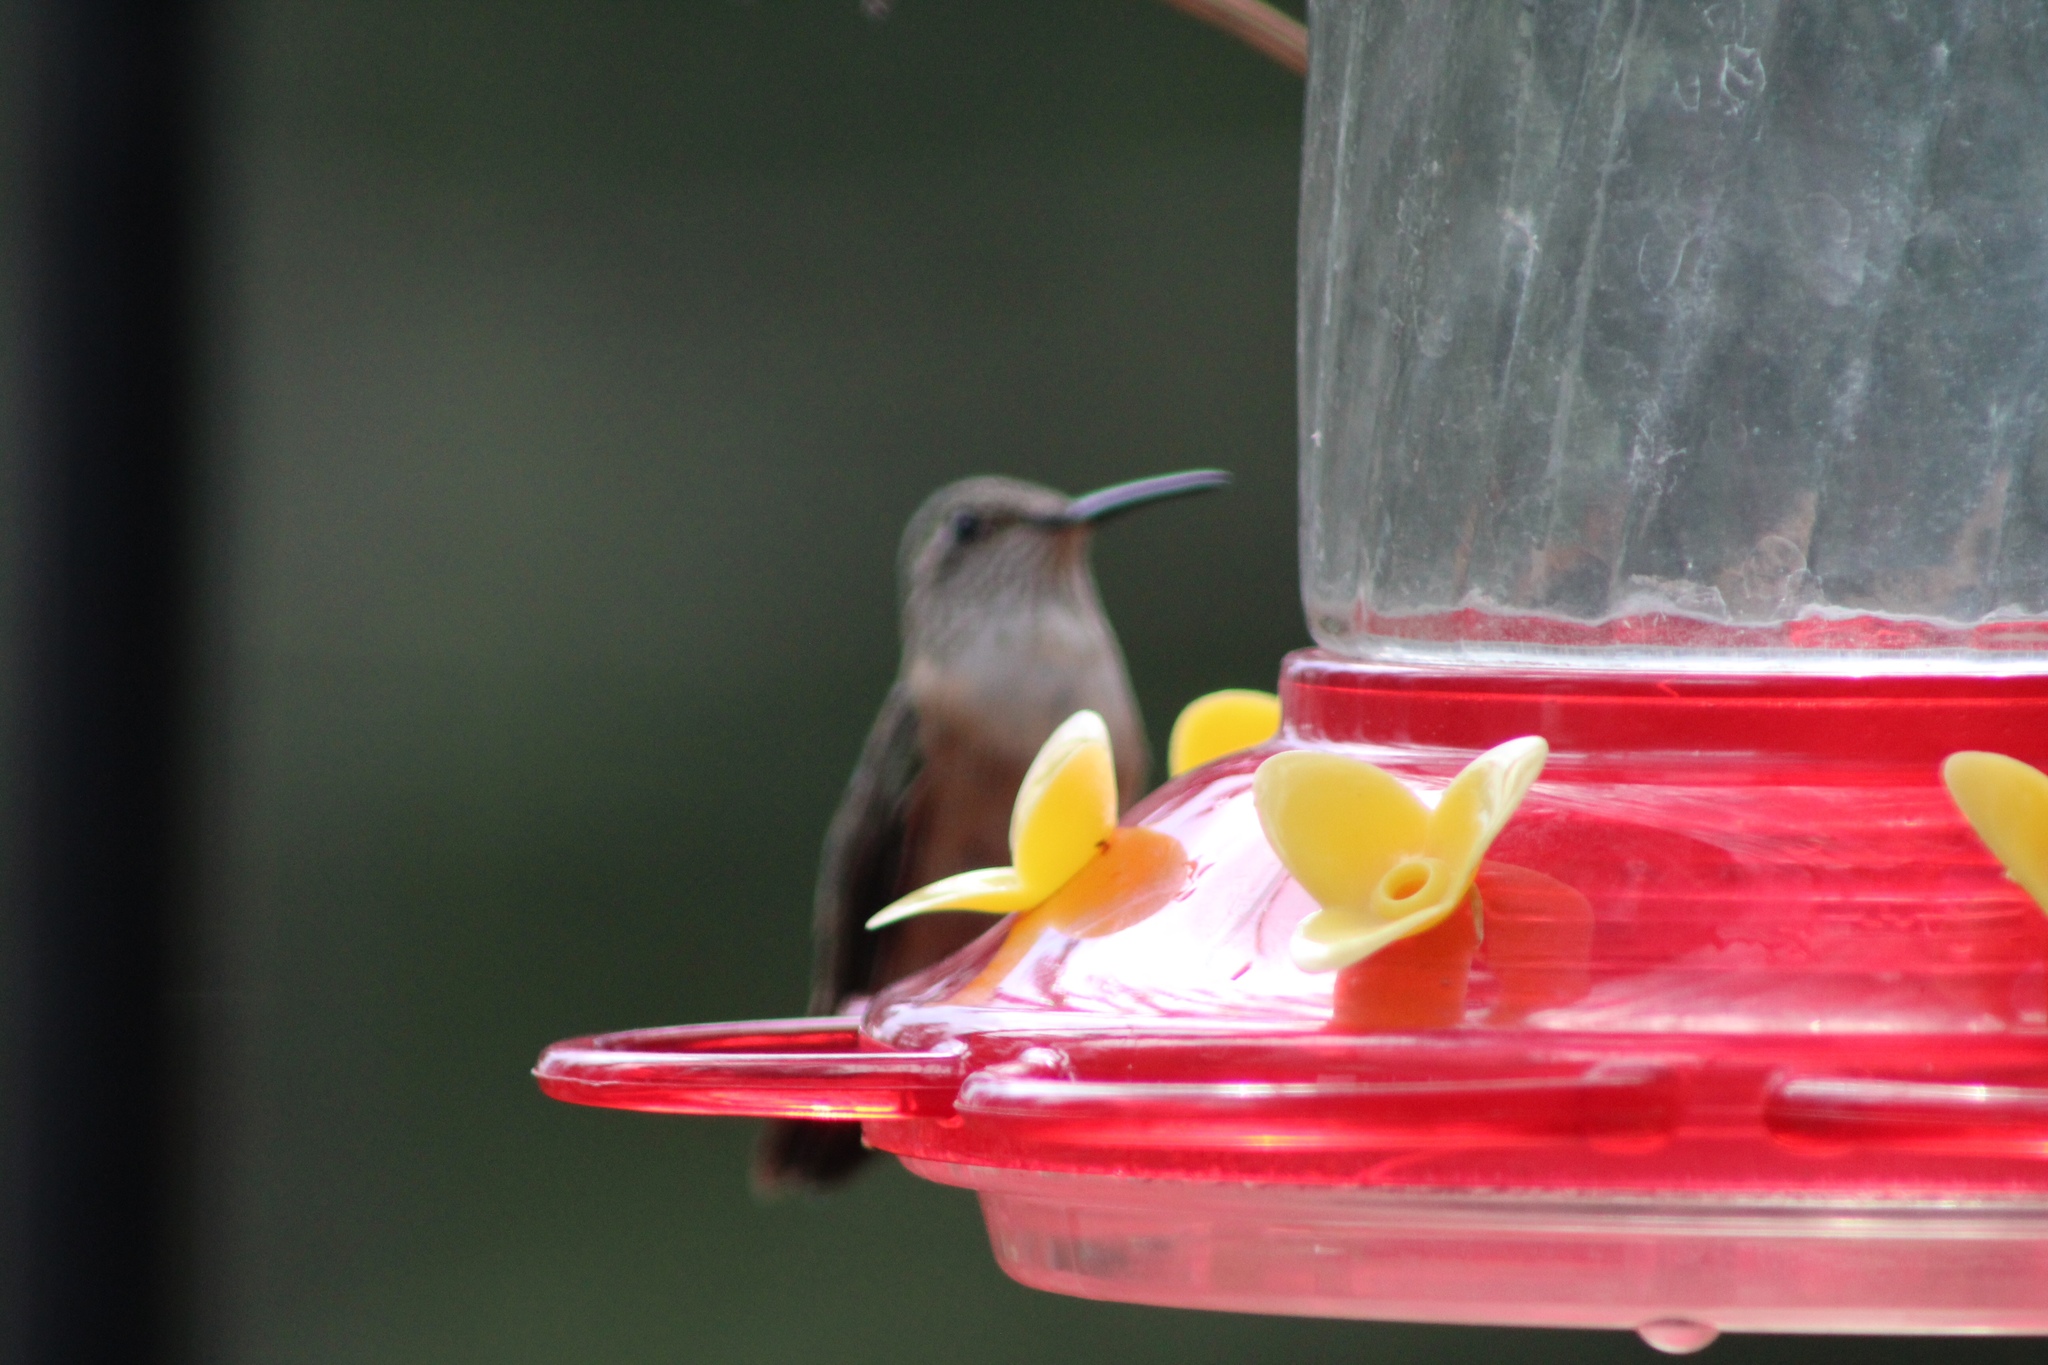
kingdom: Animalia
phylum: Chordata
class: Aves
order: Apodiformes
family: Trochilidae
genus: Selasphorus
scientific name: Selasphorus platycercus
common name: Broad-tailed hummingbird
